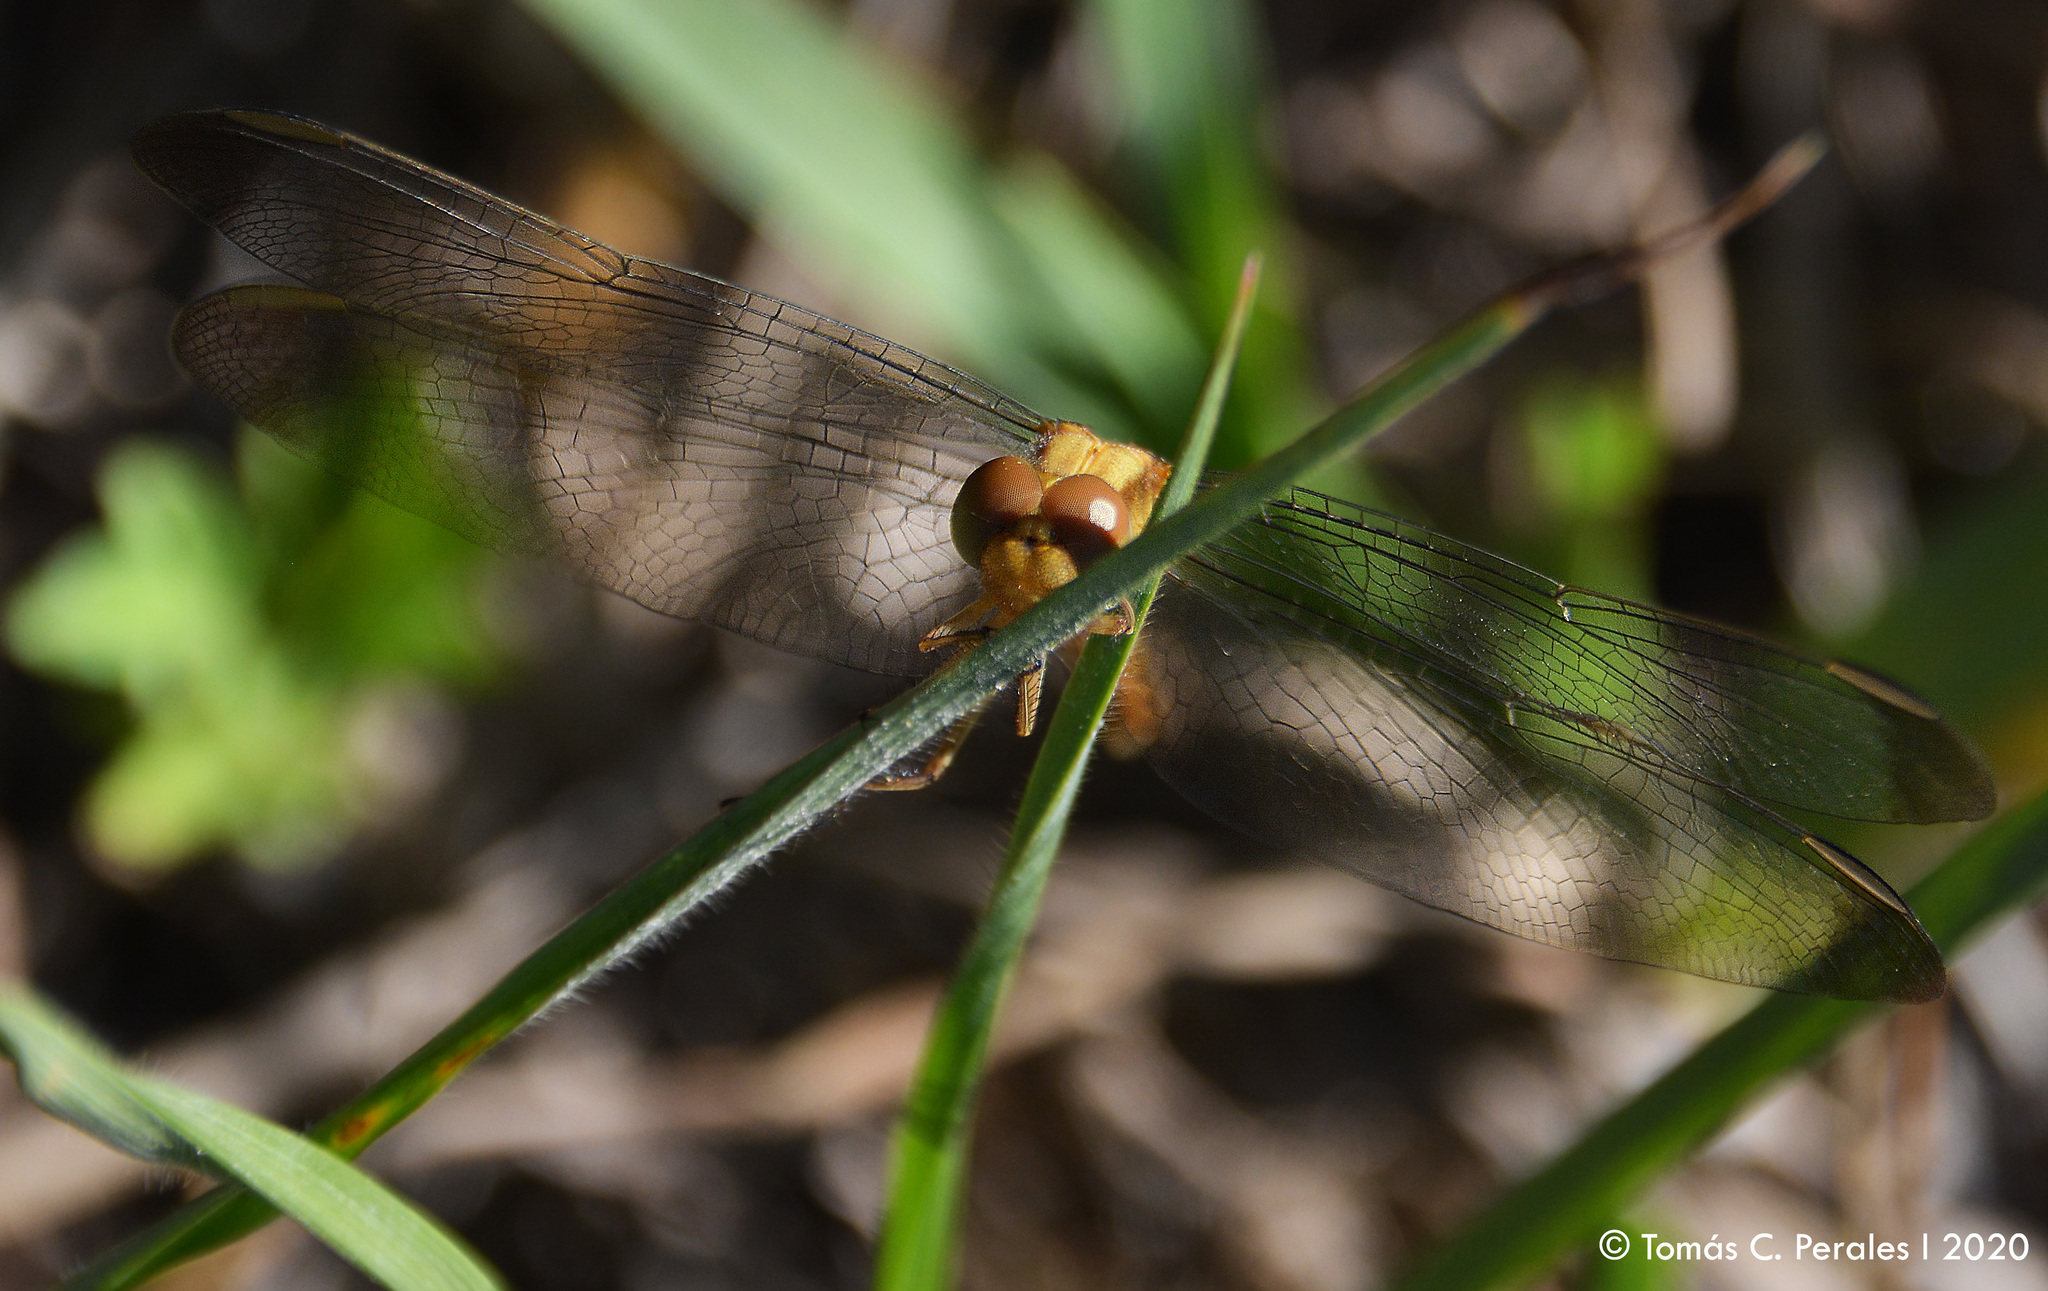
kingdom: Animalia
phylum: Arthropoda
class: Insecta
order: Odonata
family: Libellulidae
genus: Erythrodiplax
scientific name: Erythrodiplax atroterminata
